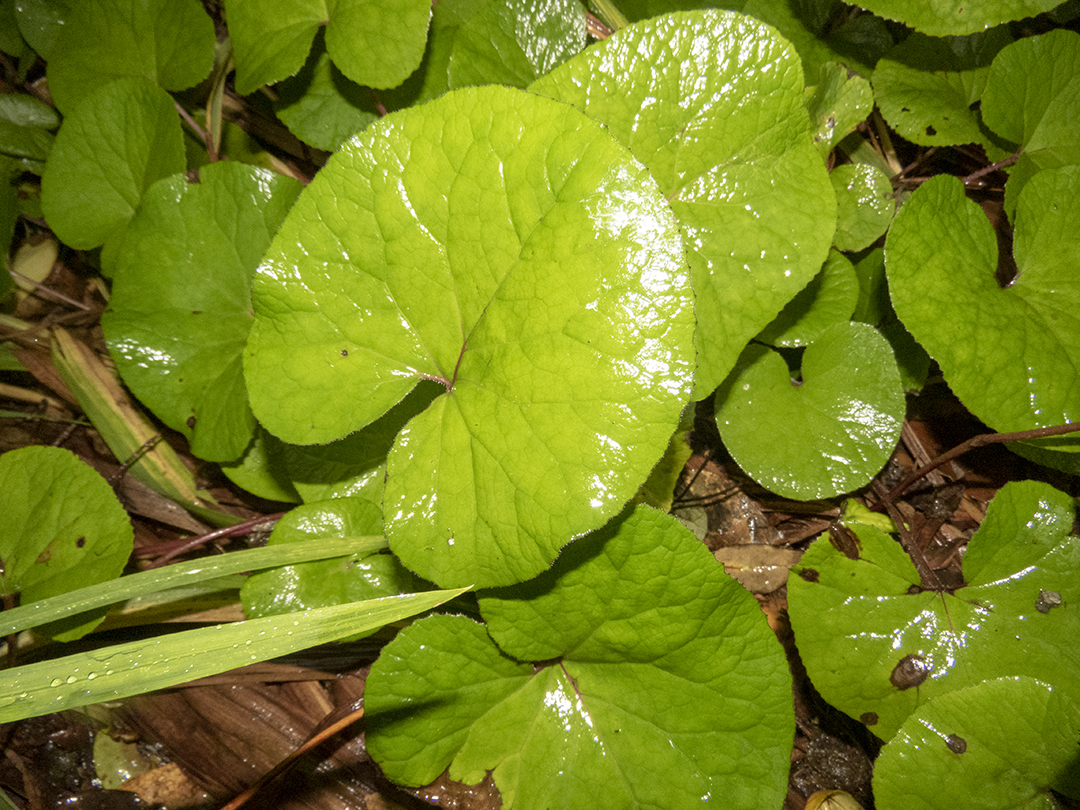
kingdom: Plantae
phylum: Tracheophyta
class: Magnoliopsida
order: Asterales
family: Asteraceae
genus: Petasites
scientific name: Petasites pyrenaicus
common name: Winter heliotrope
